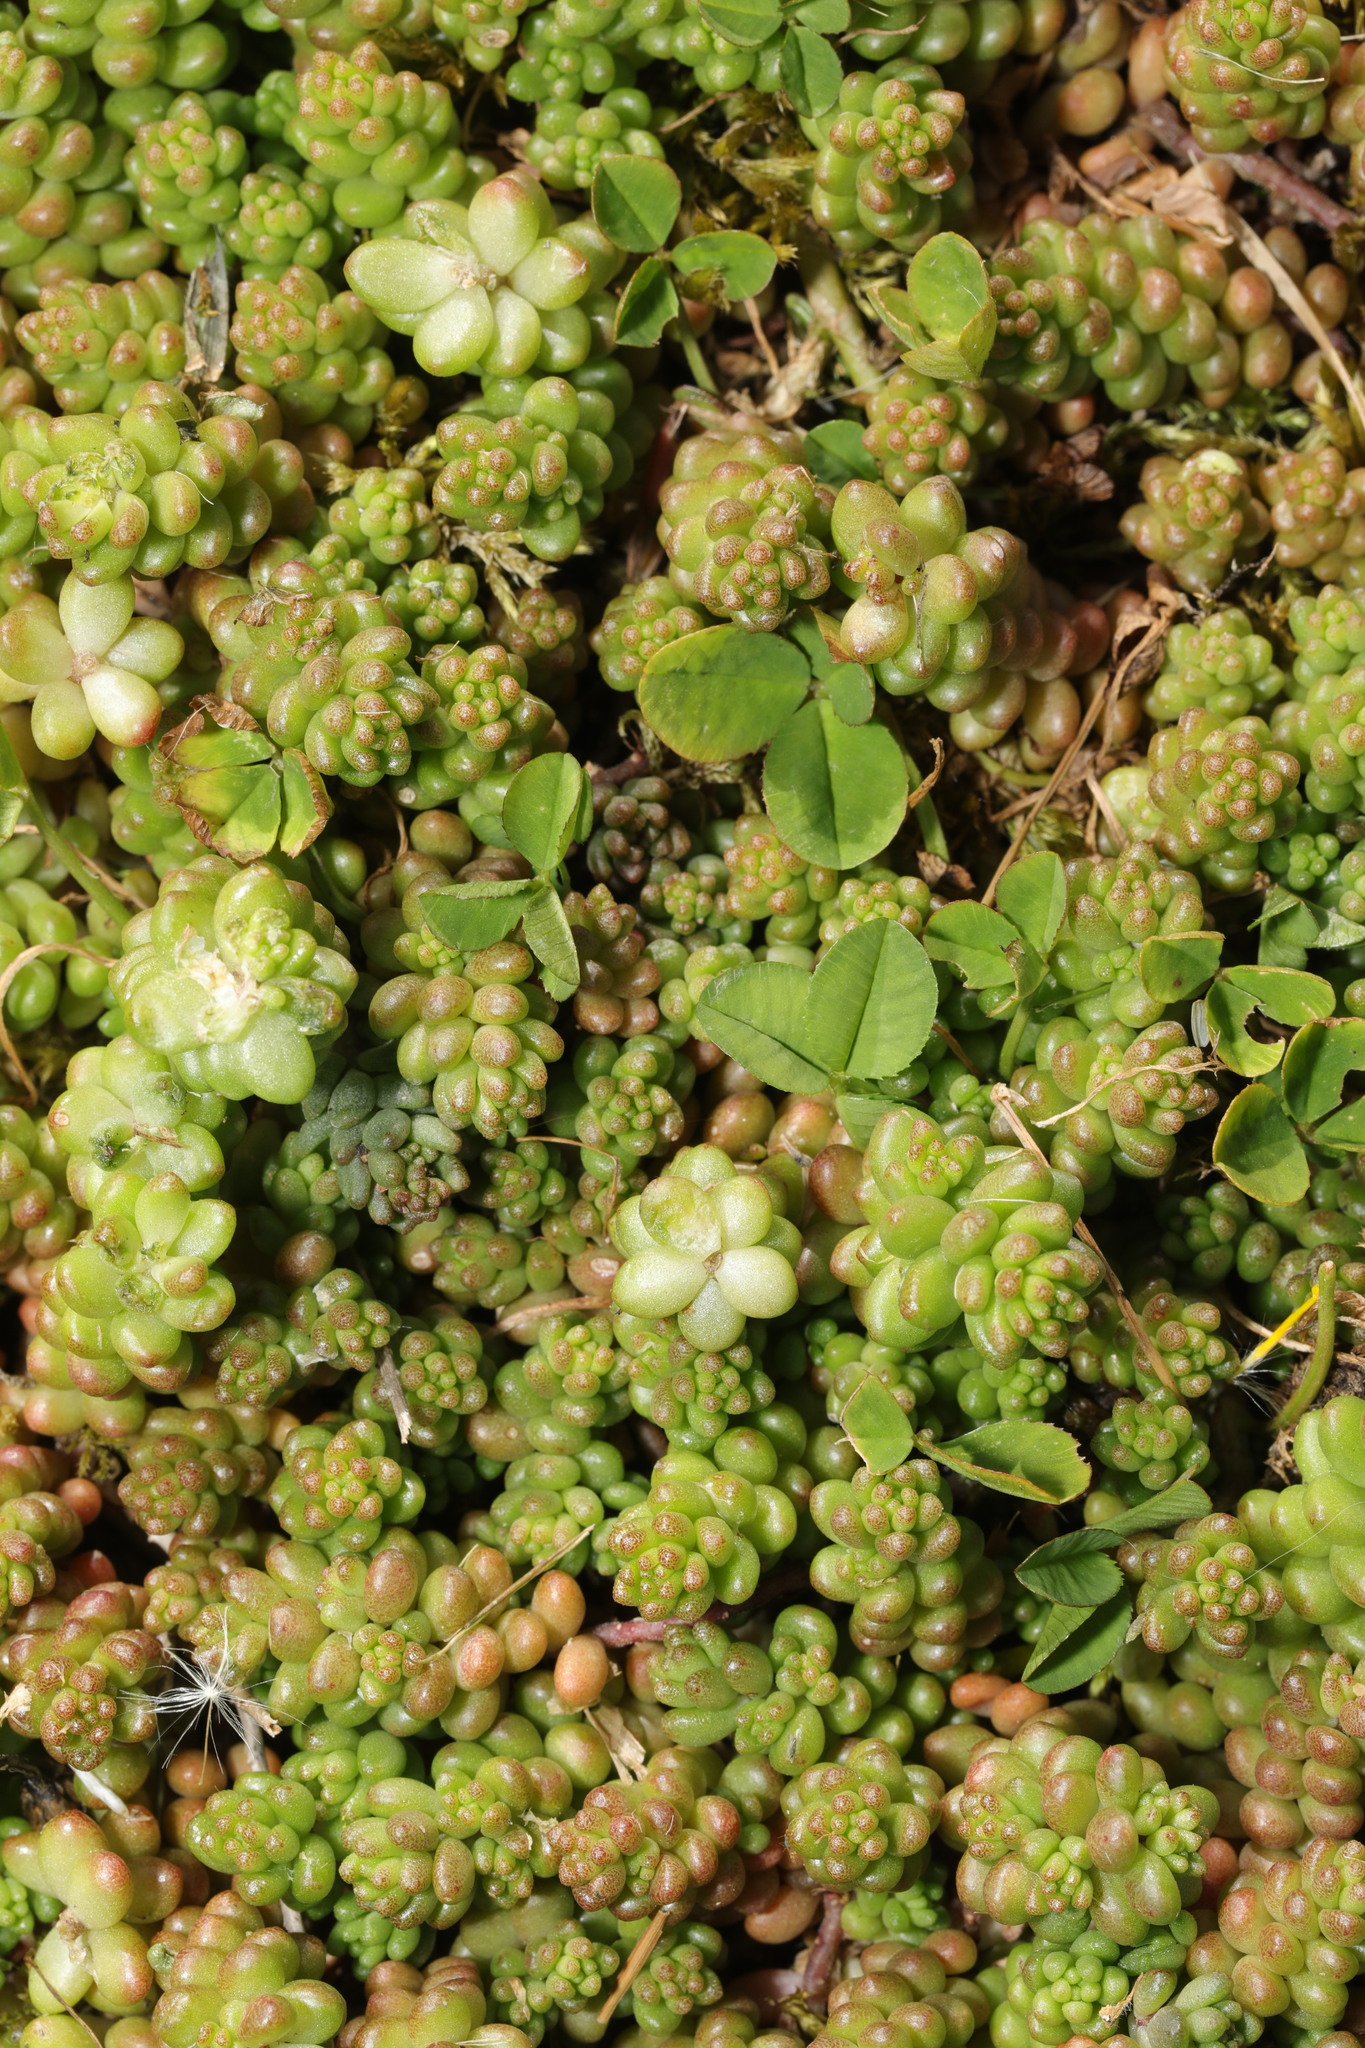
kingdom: Plantae
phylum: Tracheophyta
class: Magnoliopsida
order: Saxifragales
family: Crassulaceae
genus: Sedum
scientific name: Sedum album
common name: White stonecrop
